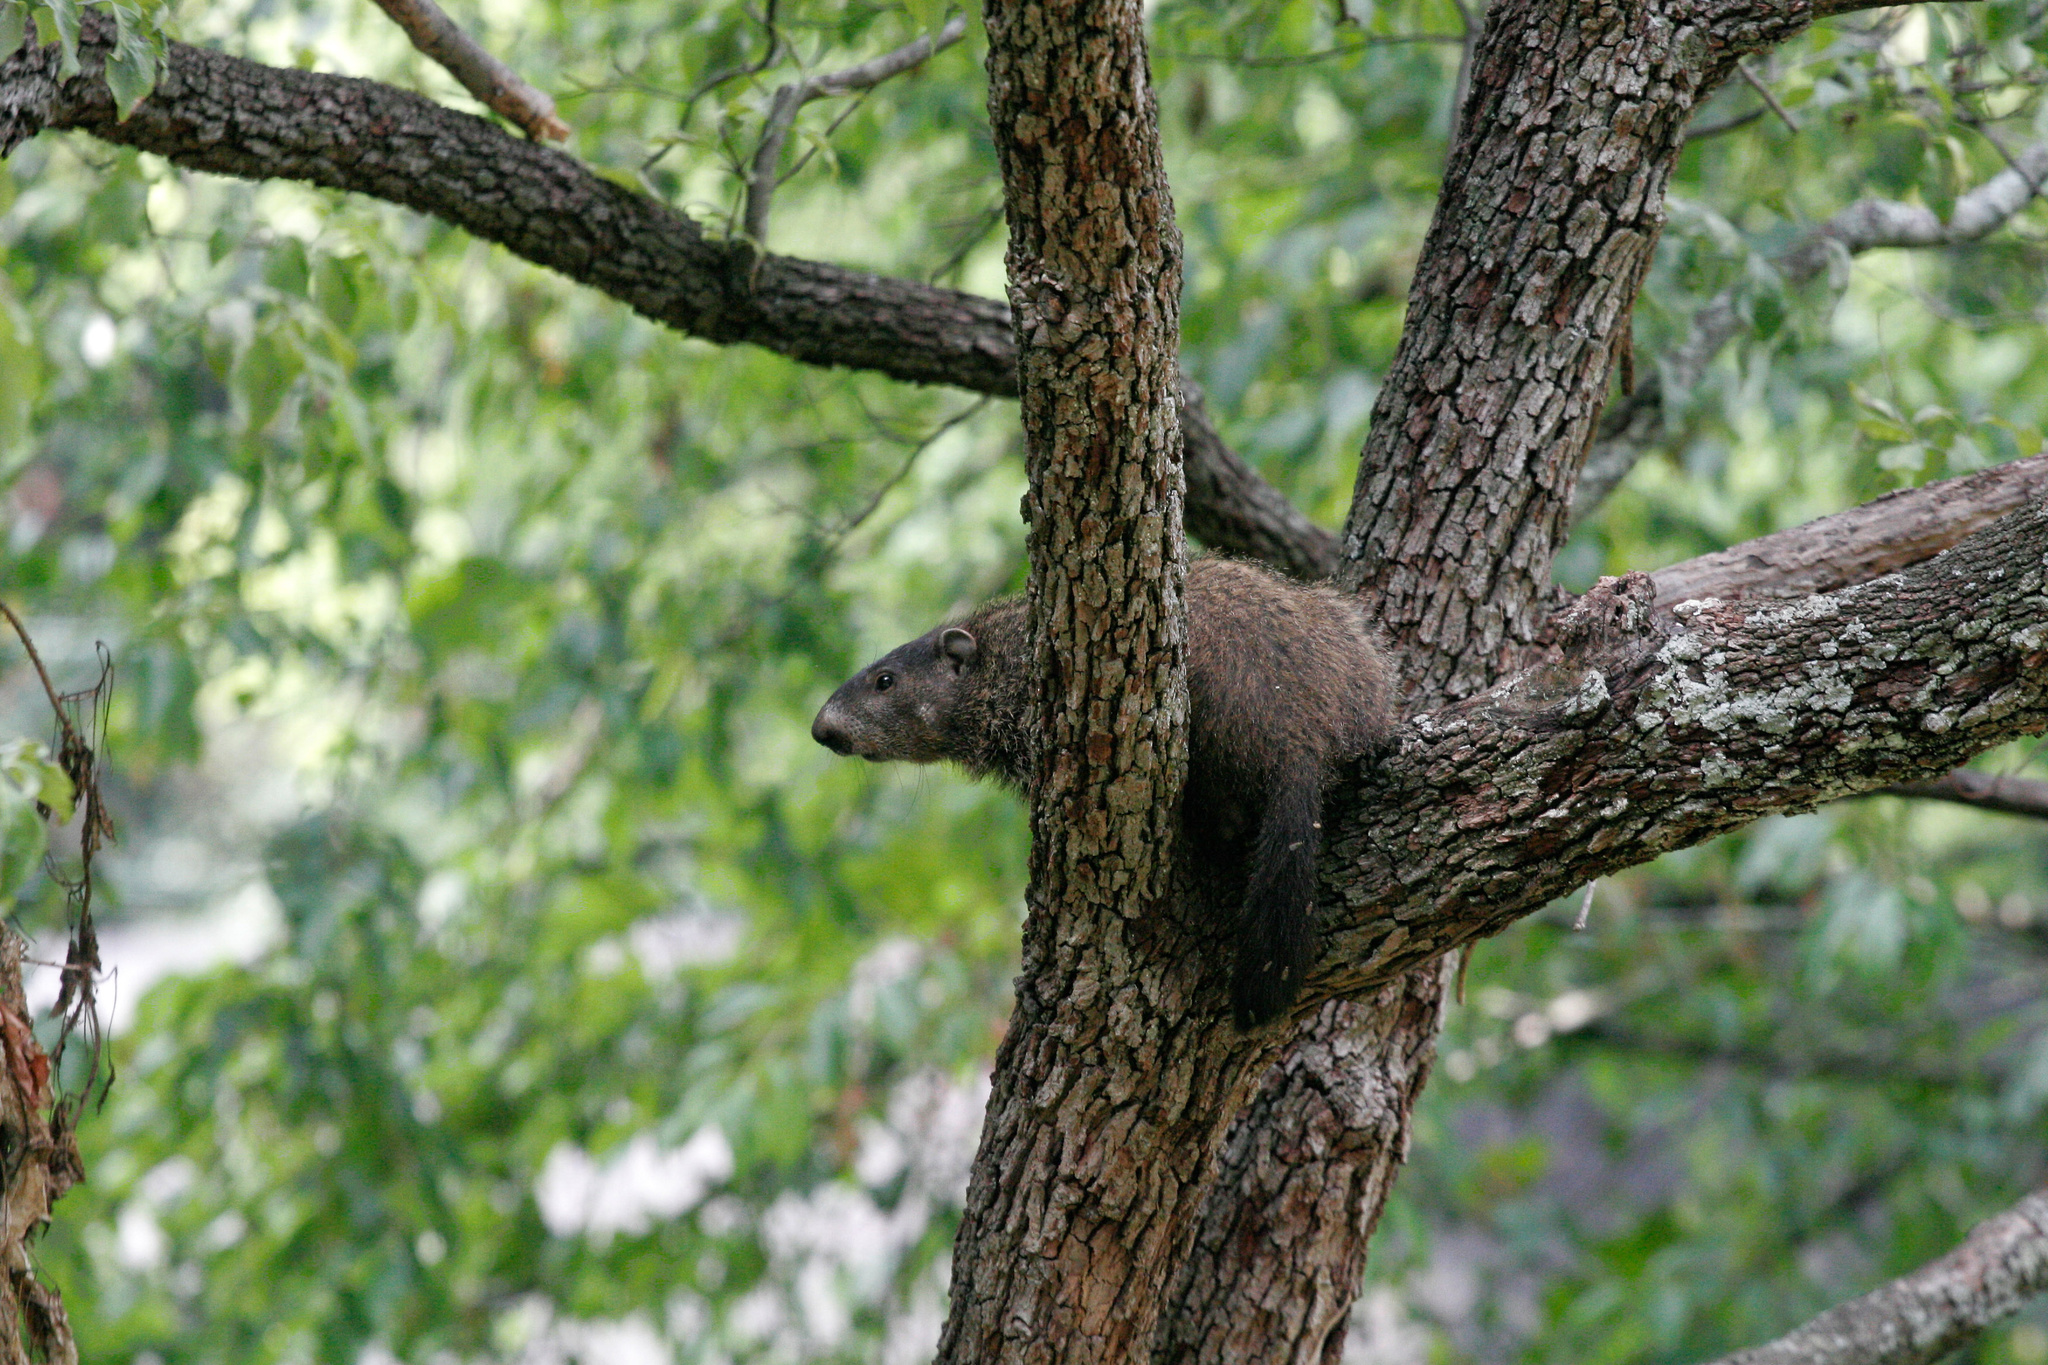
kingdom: Animalia
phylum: Chordata
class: Mammalia
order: Rodentia
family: Sciuridae
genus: Marmota
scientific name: Marmota monax
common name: Groundhog
